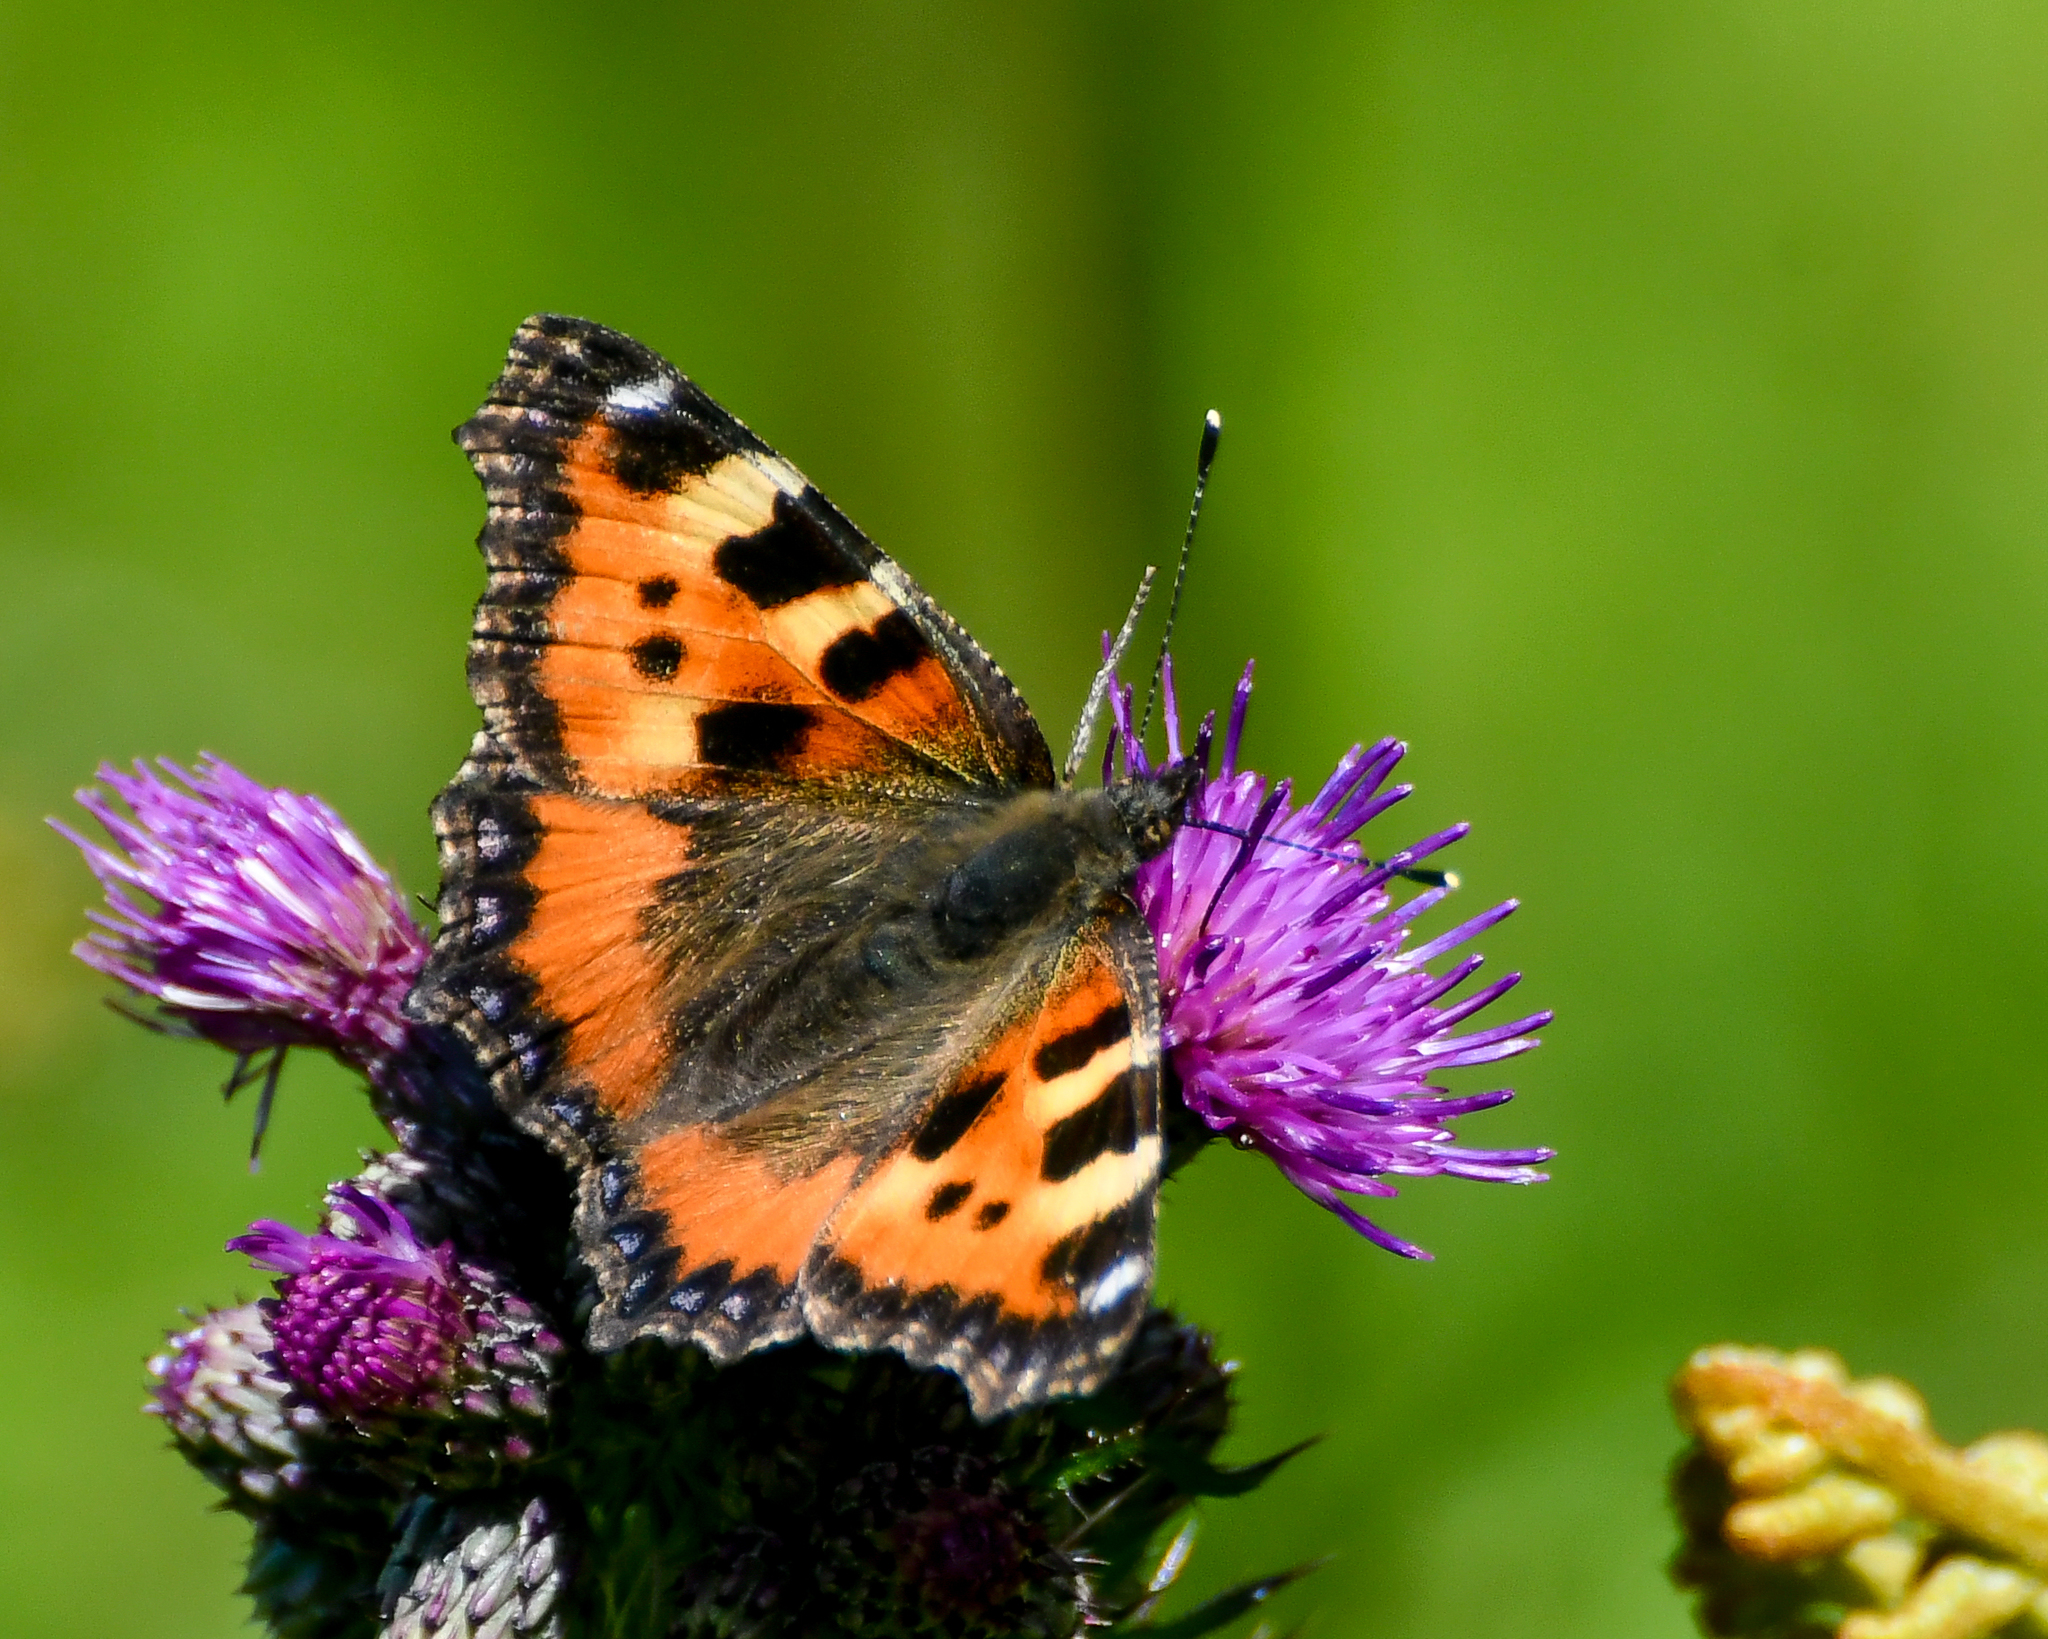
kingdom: Animalia
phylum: Arthropoda
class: Insecta
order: Lepidoptera
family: Nymphalidae
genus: Aglais
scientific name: Aglais urticae
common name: Small tortoiseshell
